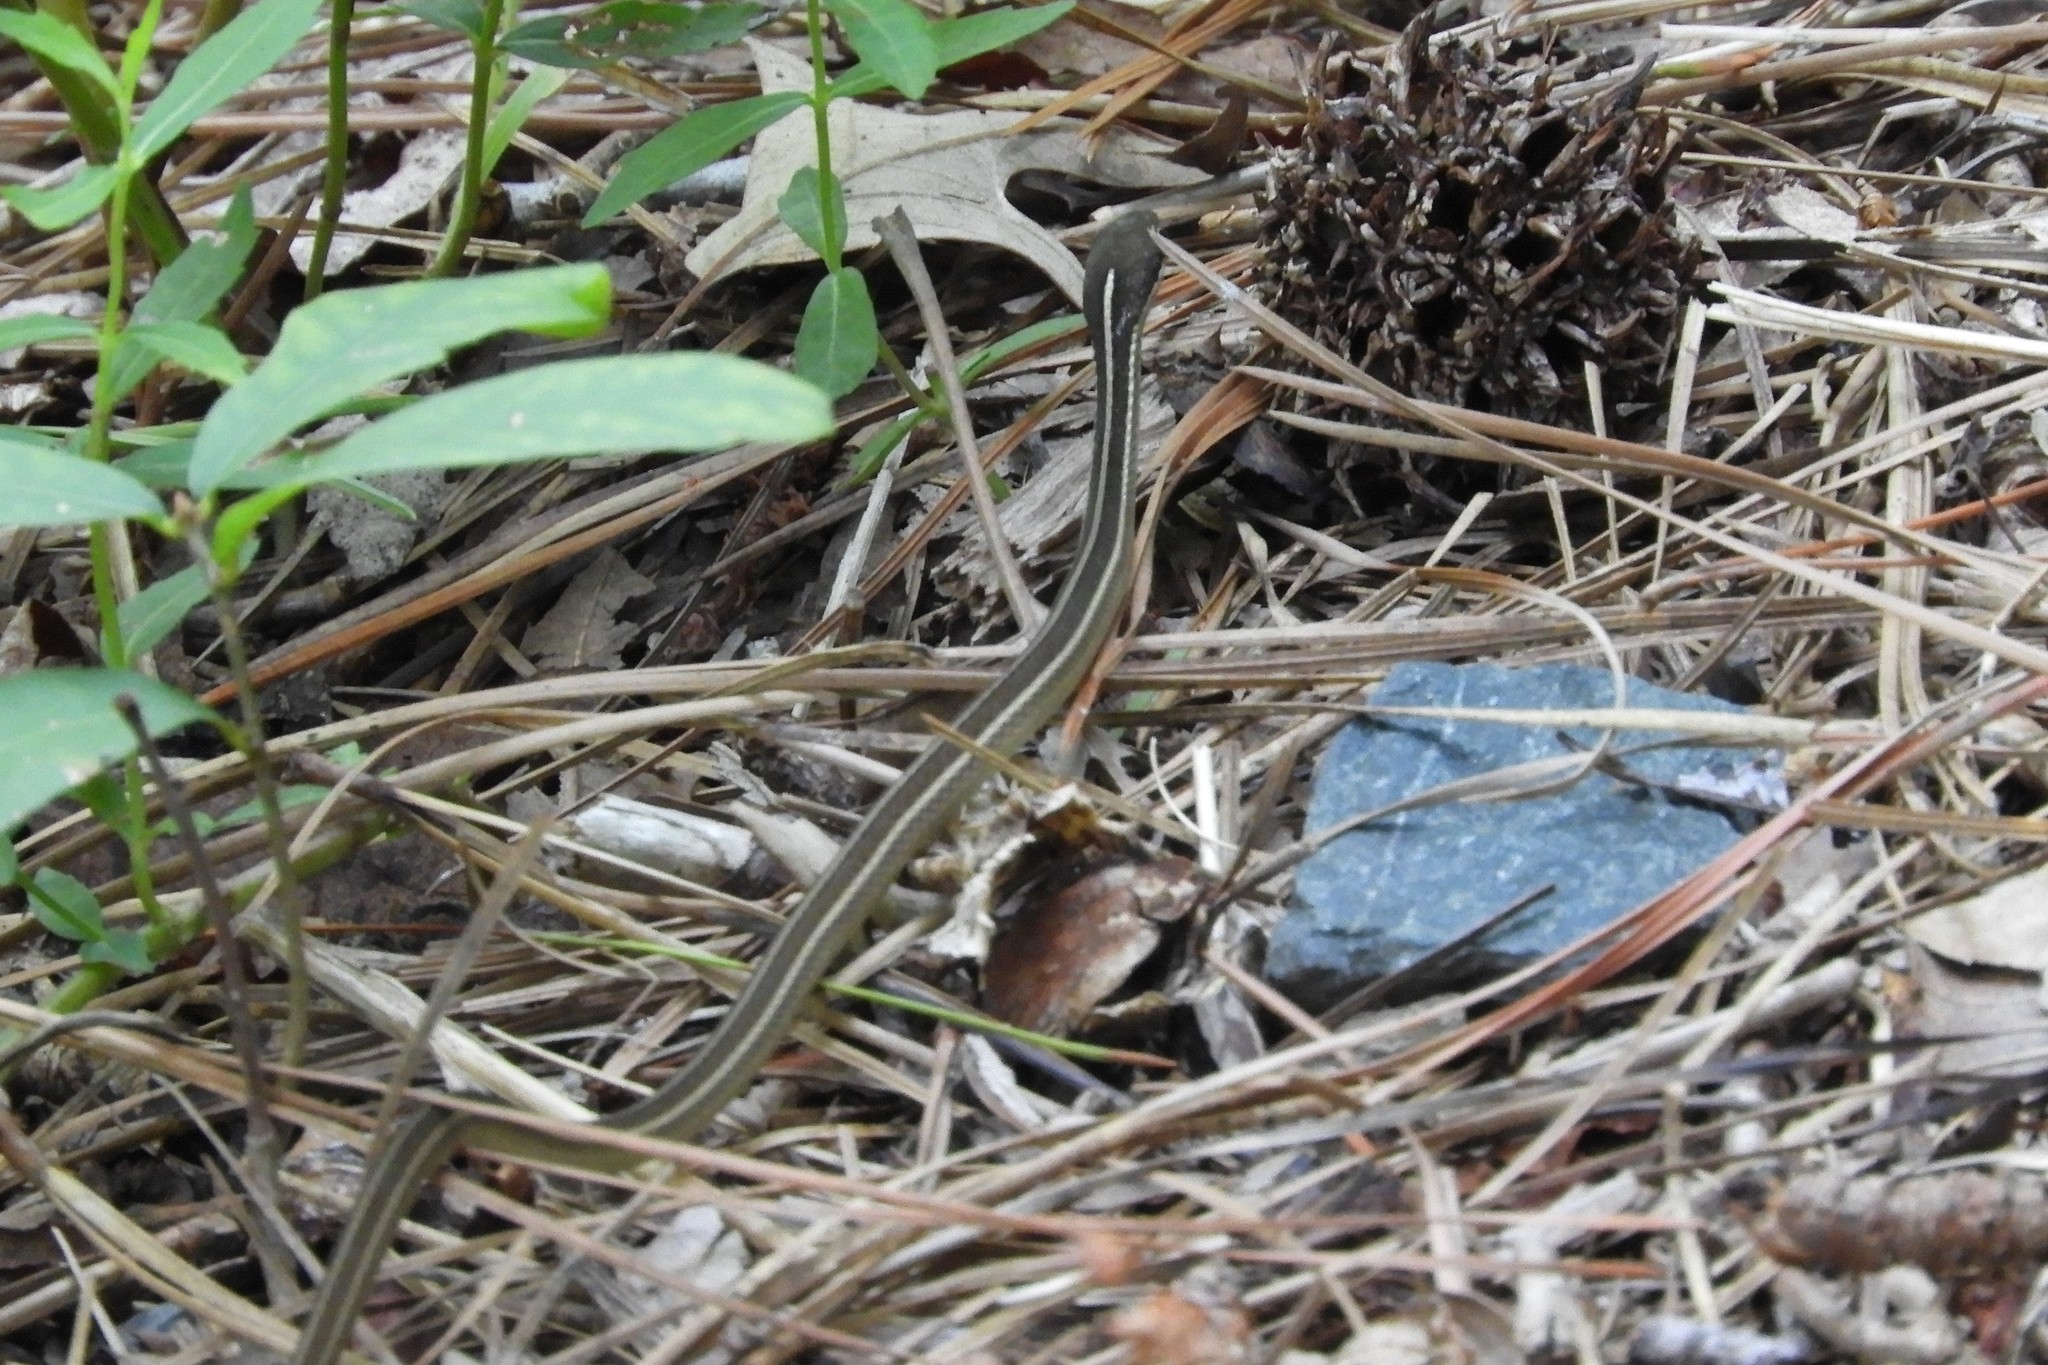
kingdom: Animalia
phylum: Chordata
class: Squamata
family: Colubridae
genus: Thamnophis
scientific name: Thamnophis saurita
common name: Eastern ribbonsnake
